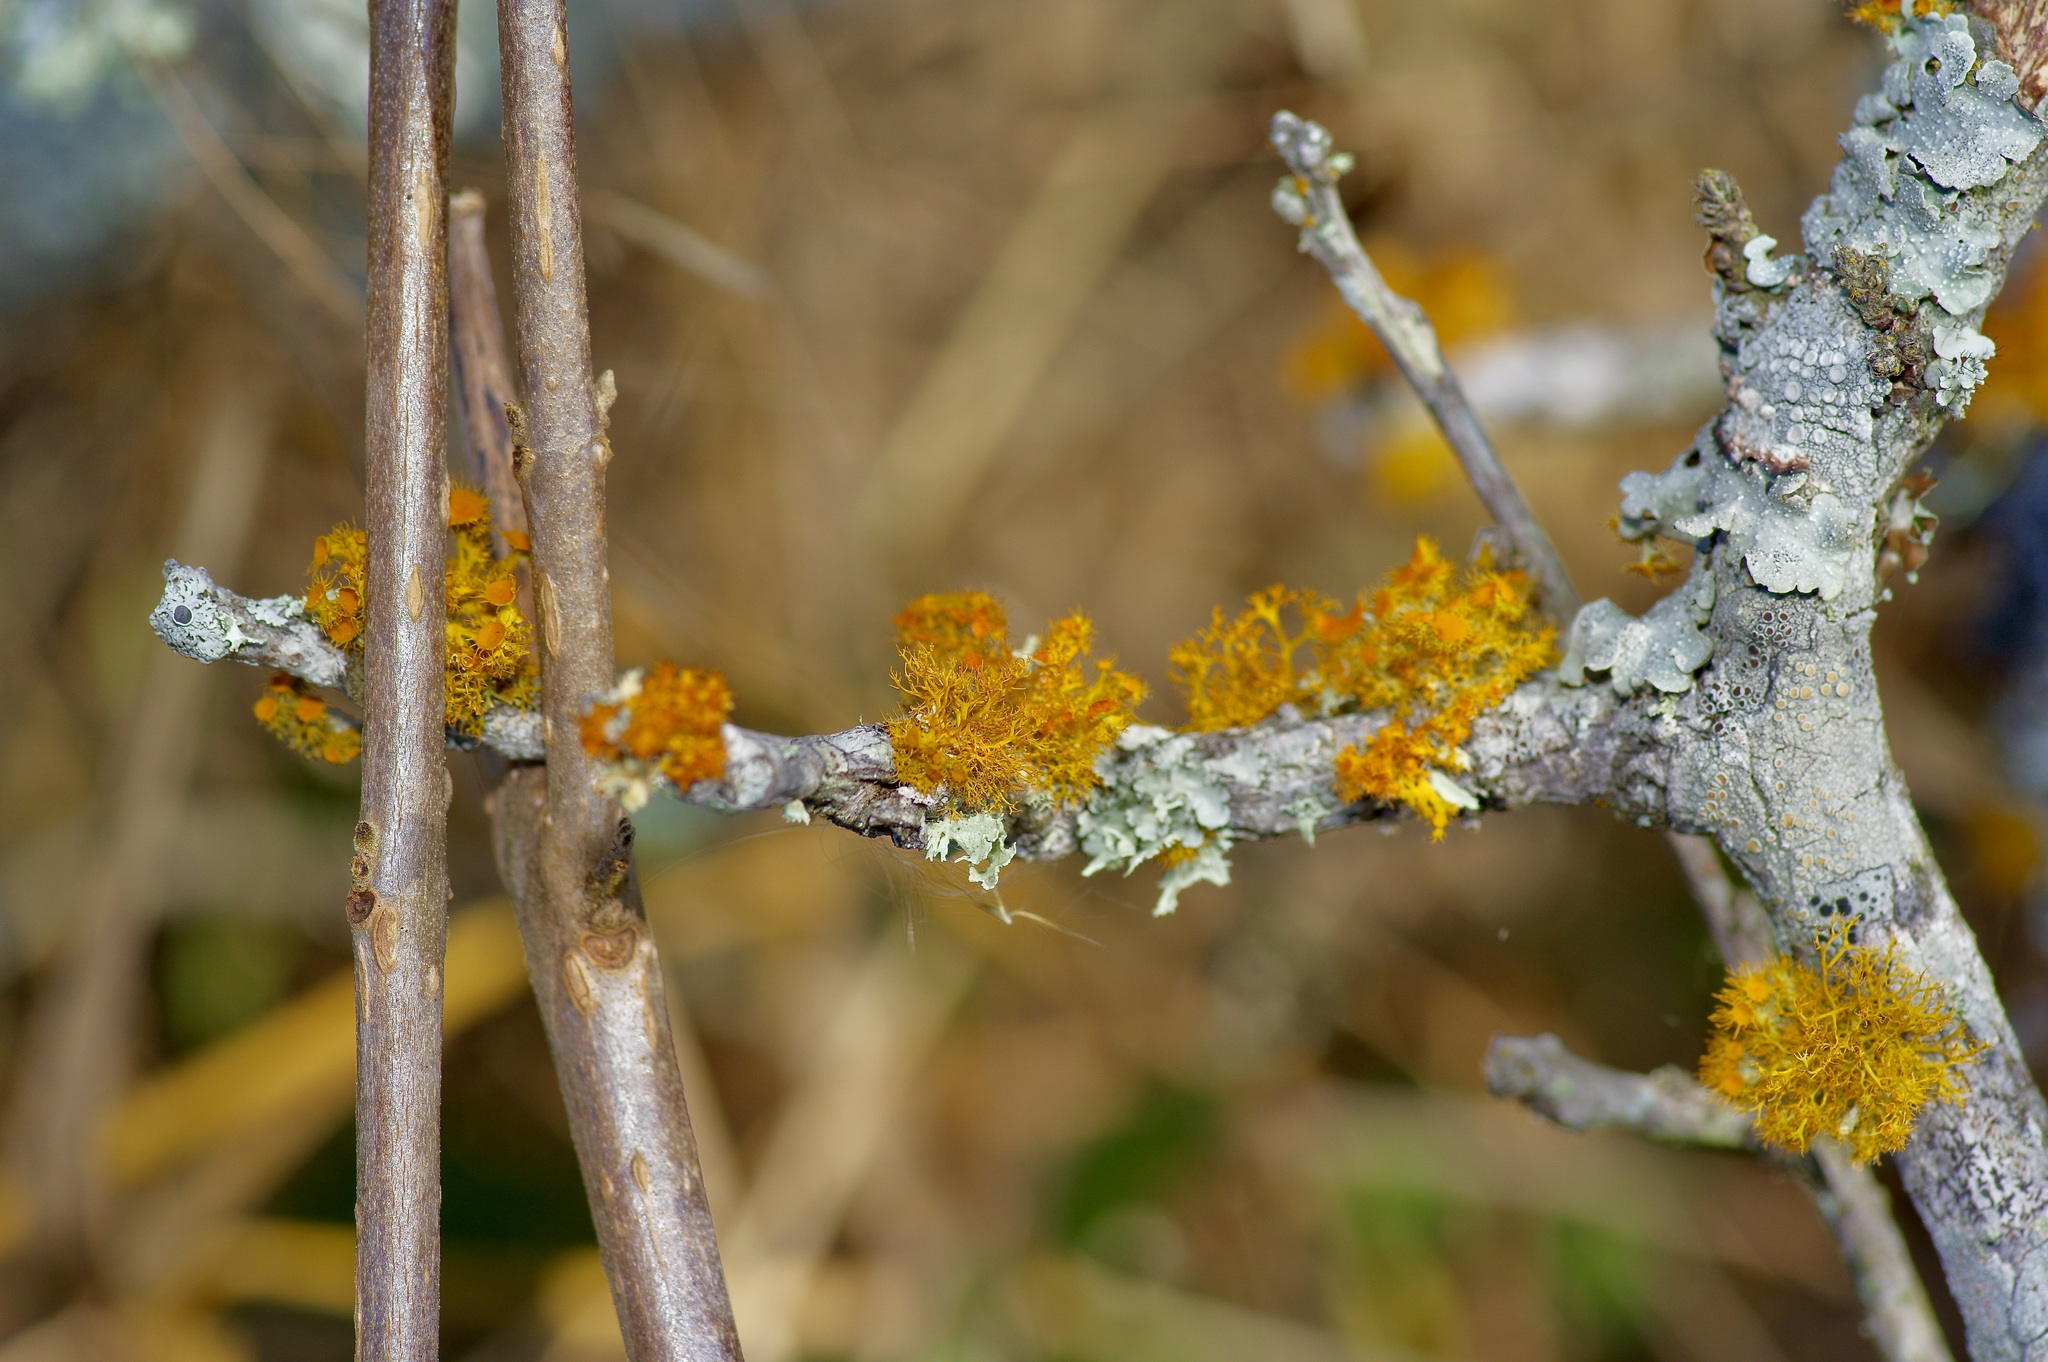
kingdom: Fungi
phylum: Ascomycota
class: Lecanoromycetes
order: Teloschistales
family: Teloschistaceae
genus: Niorma
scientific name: Niorma chrysophthalma
